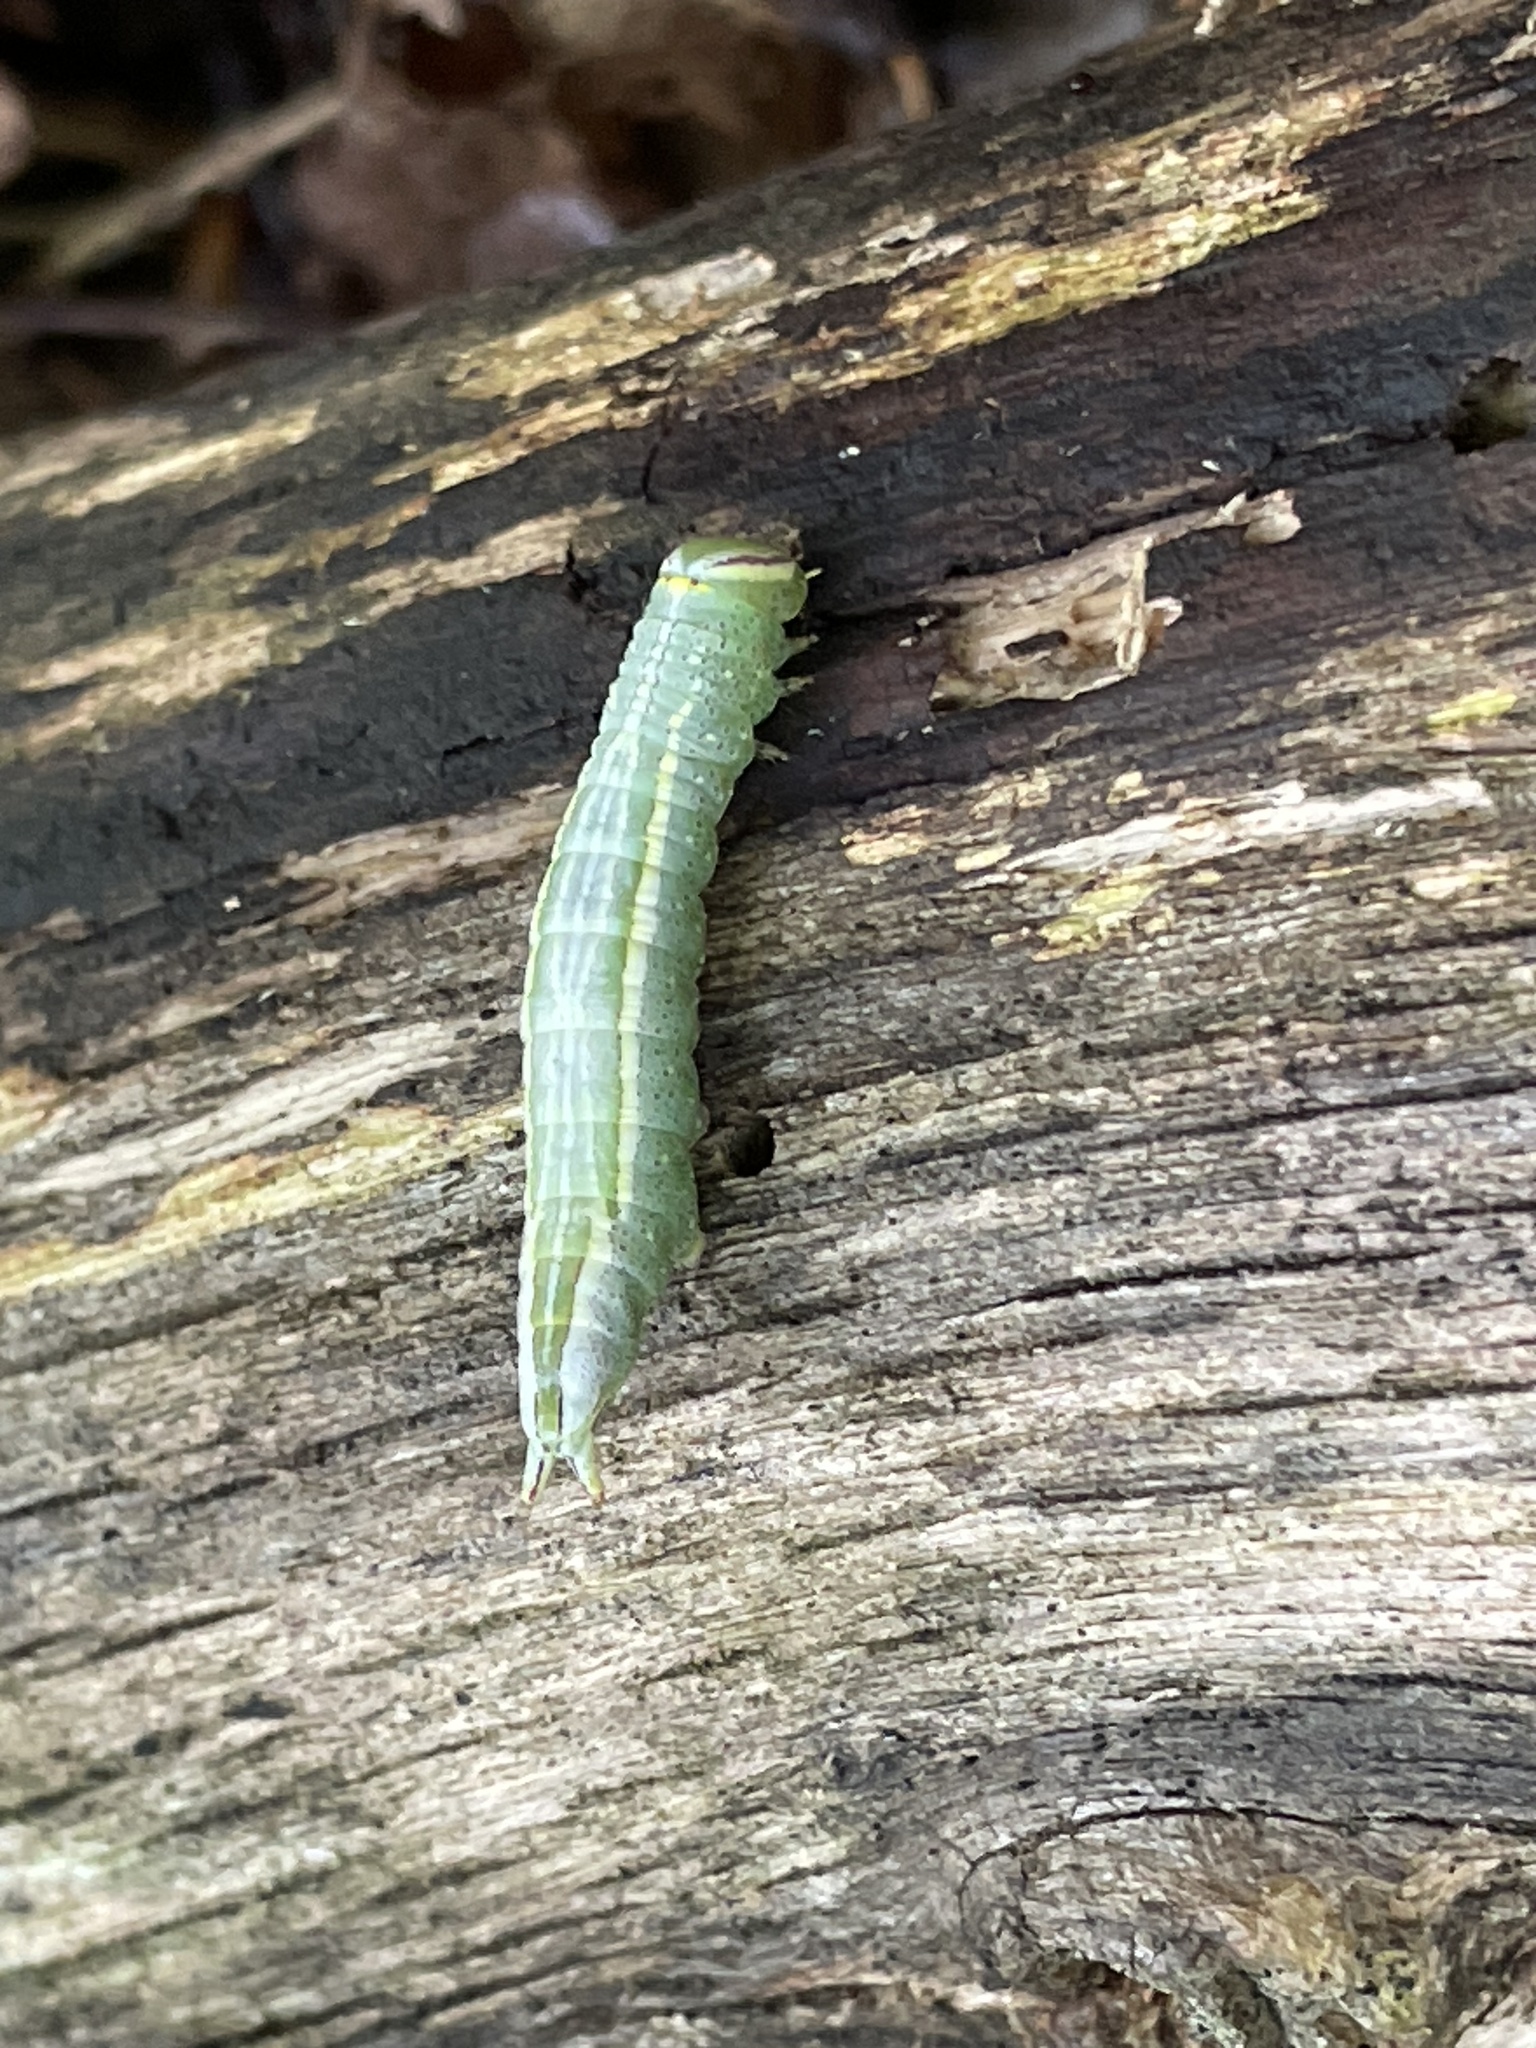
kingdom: Animalia
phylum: Arthropoda
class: Insecta
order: Lepidoptera
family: Notodontidae
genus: Disphragis
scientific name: Disphragis Cecrita guttivitta
